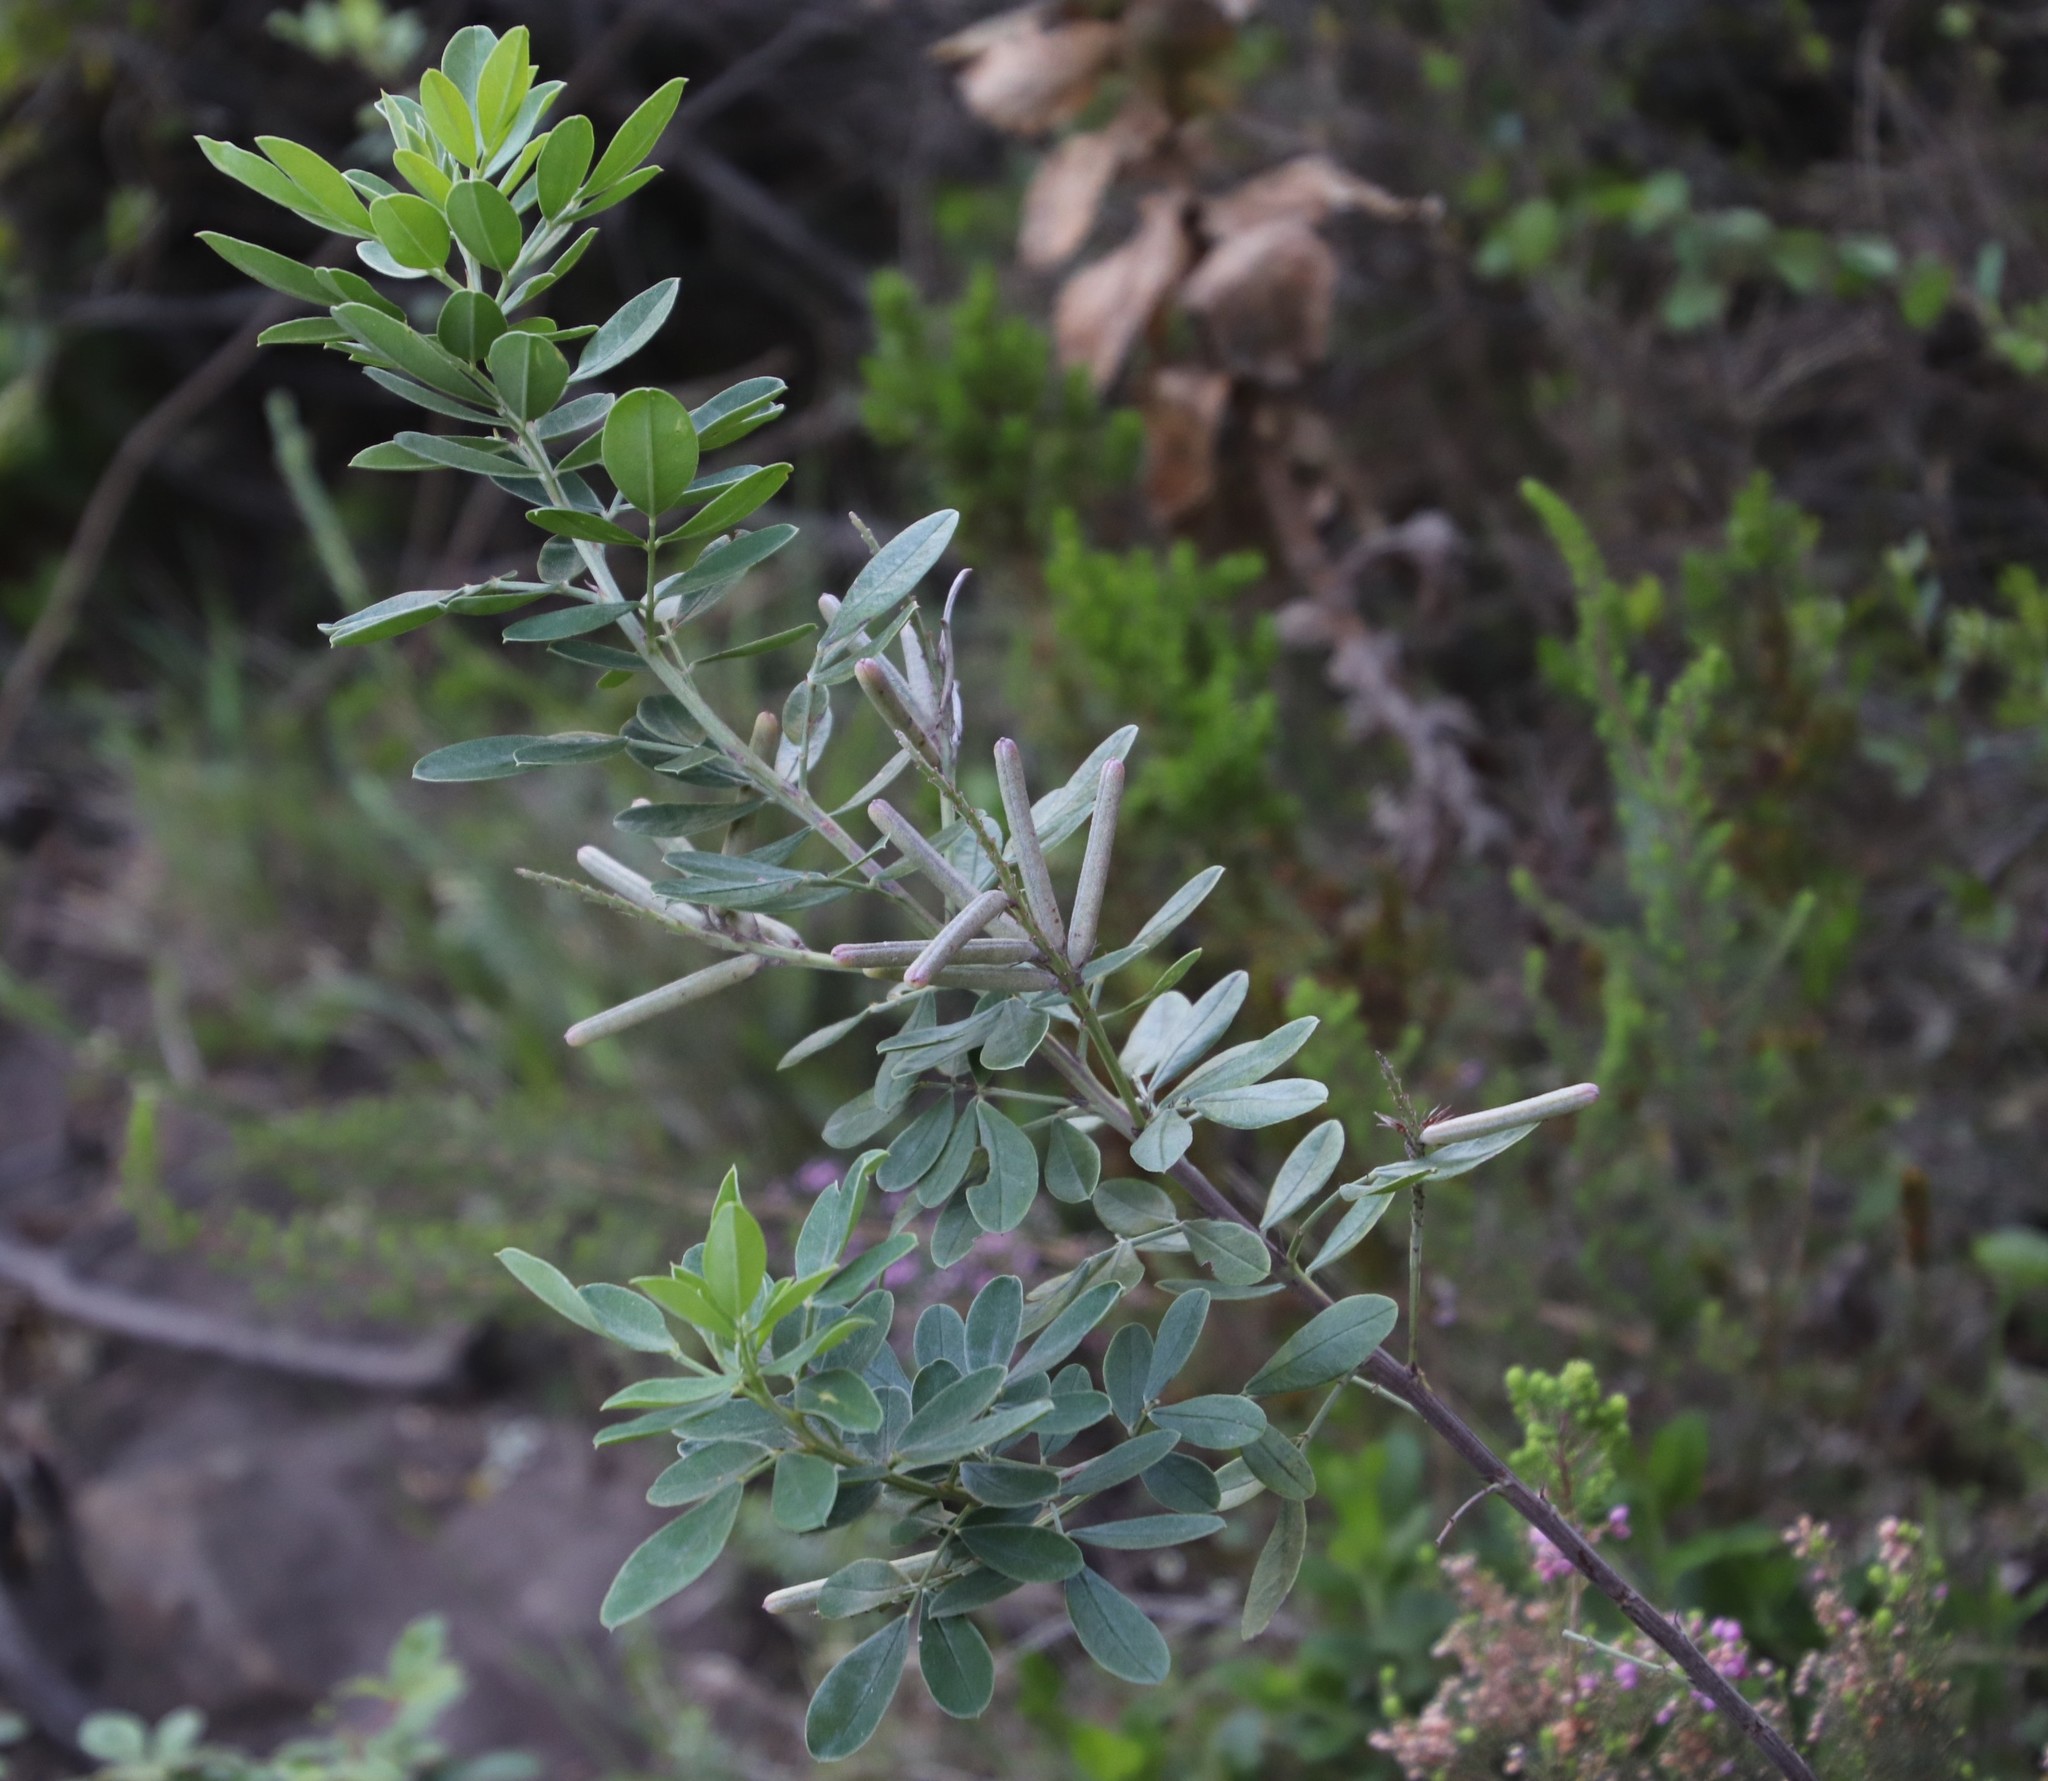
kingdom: Plantae
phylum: Tracheophyta
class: Magnoliopsida
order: Fabales
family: Fabaceae
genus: Indigofera
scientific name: Indigofera cytisoides
